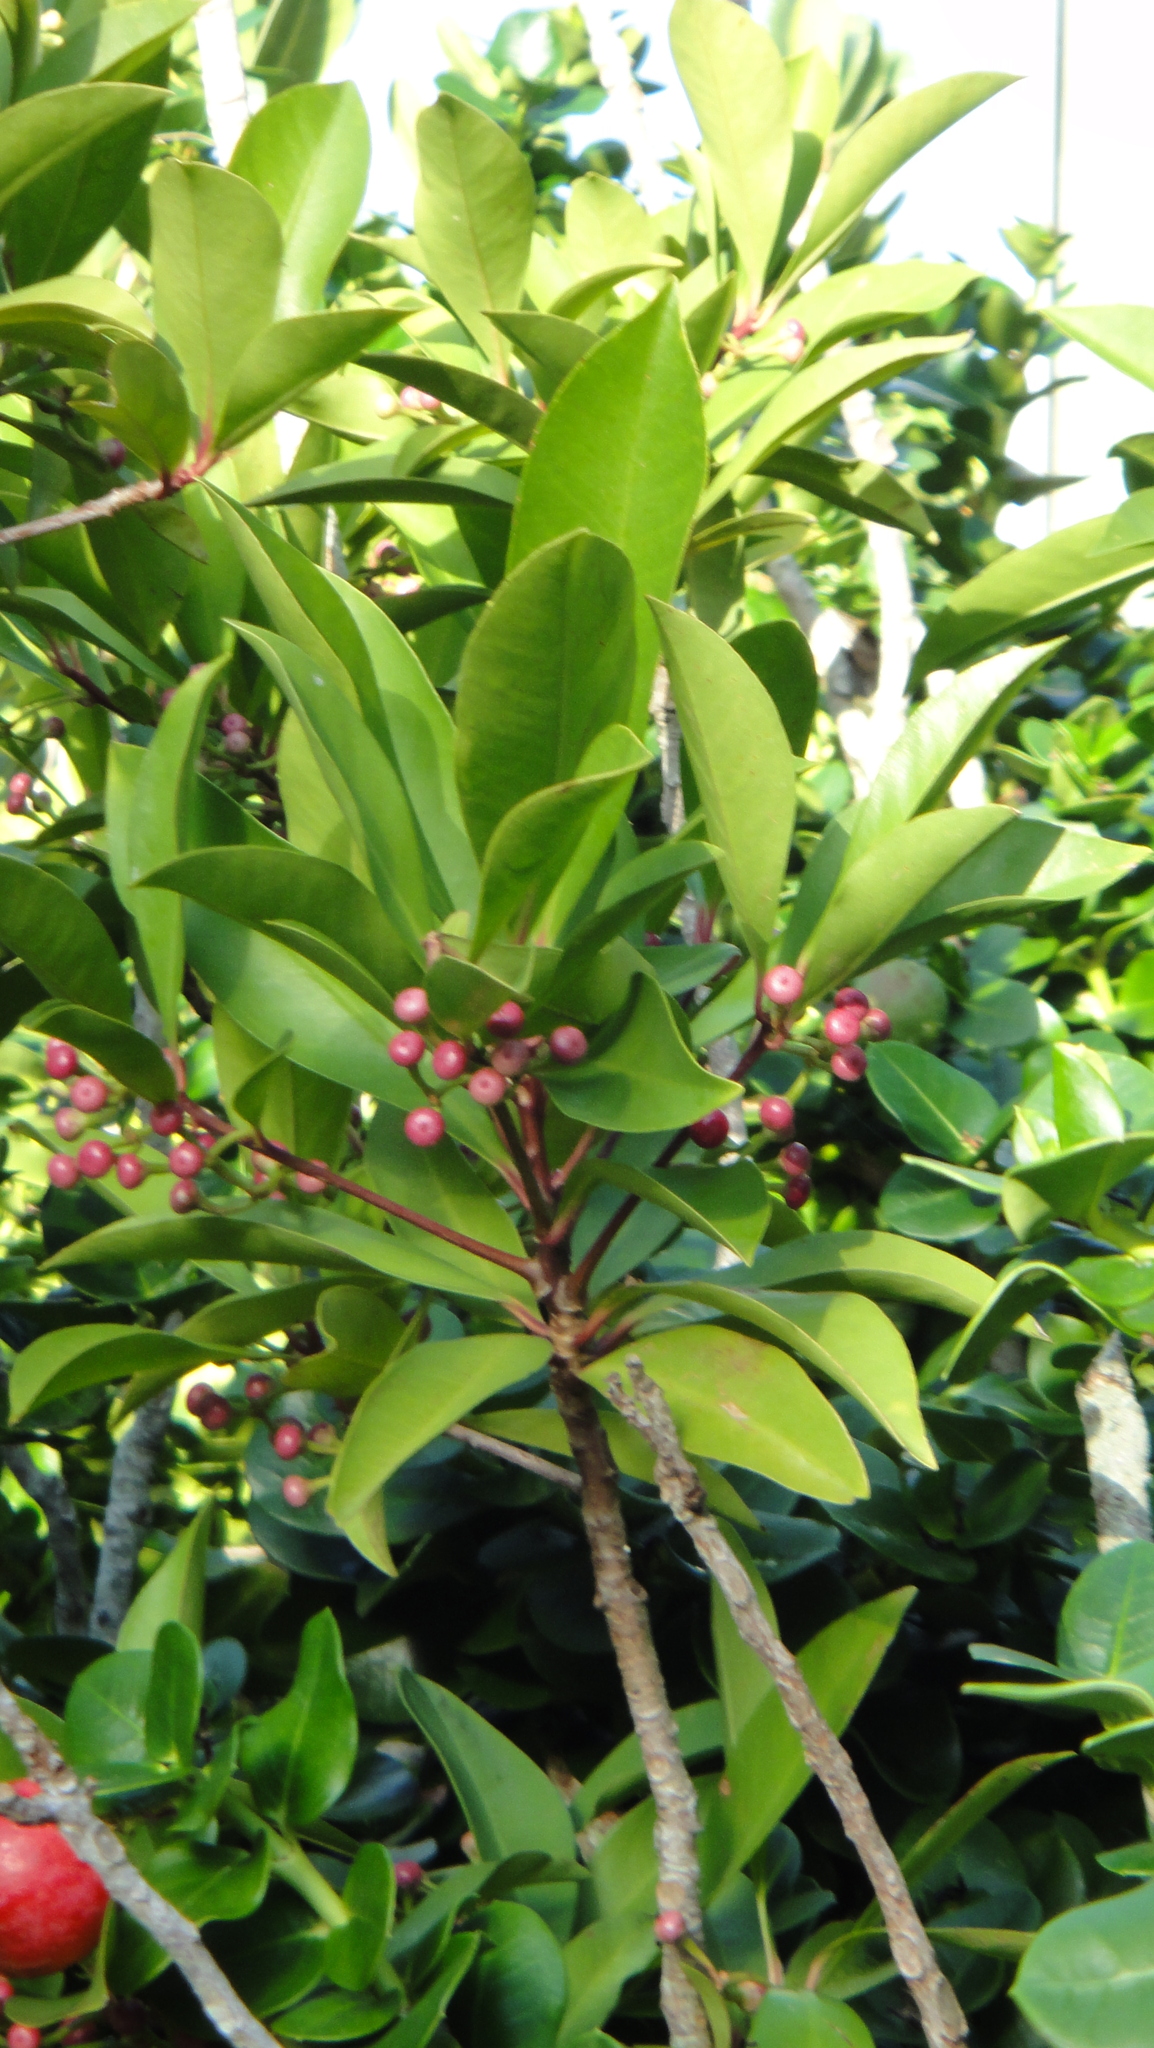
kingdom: Plantae
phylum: Tracheophyta
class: Magnoliopsida
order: Ericales
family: Primulaceae
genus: Ardisia
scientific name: Ardisia elliptica
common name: Shoebutton
